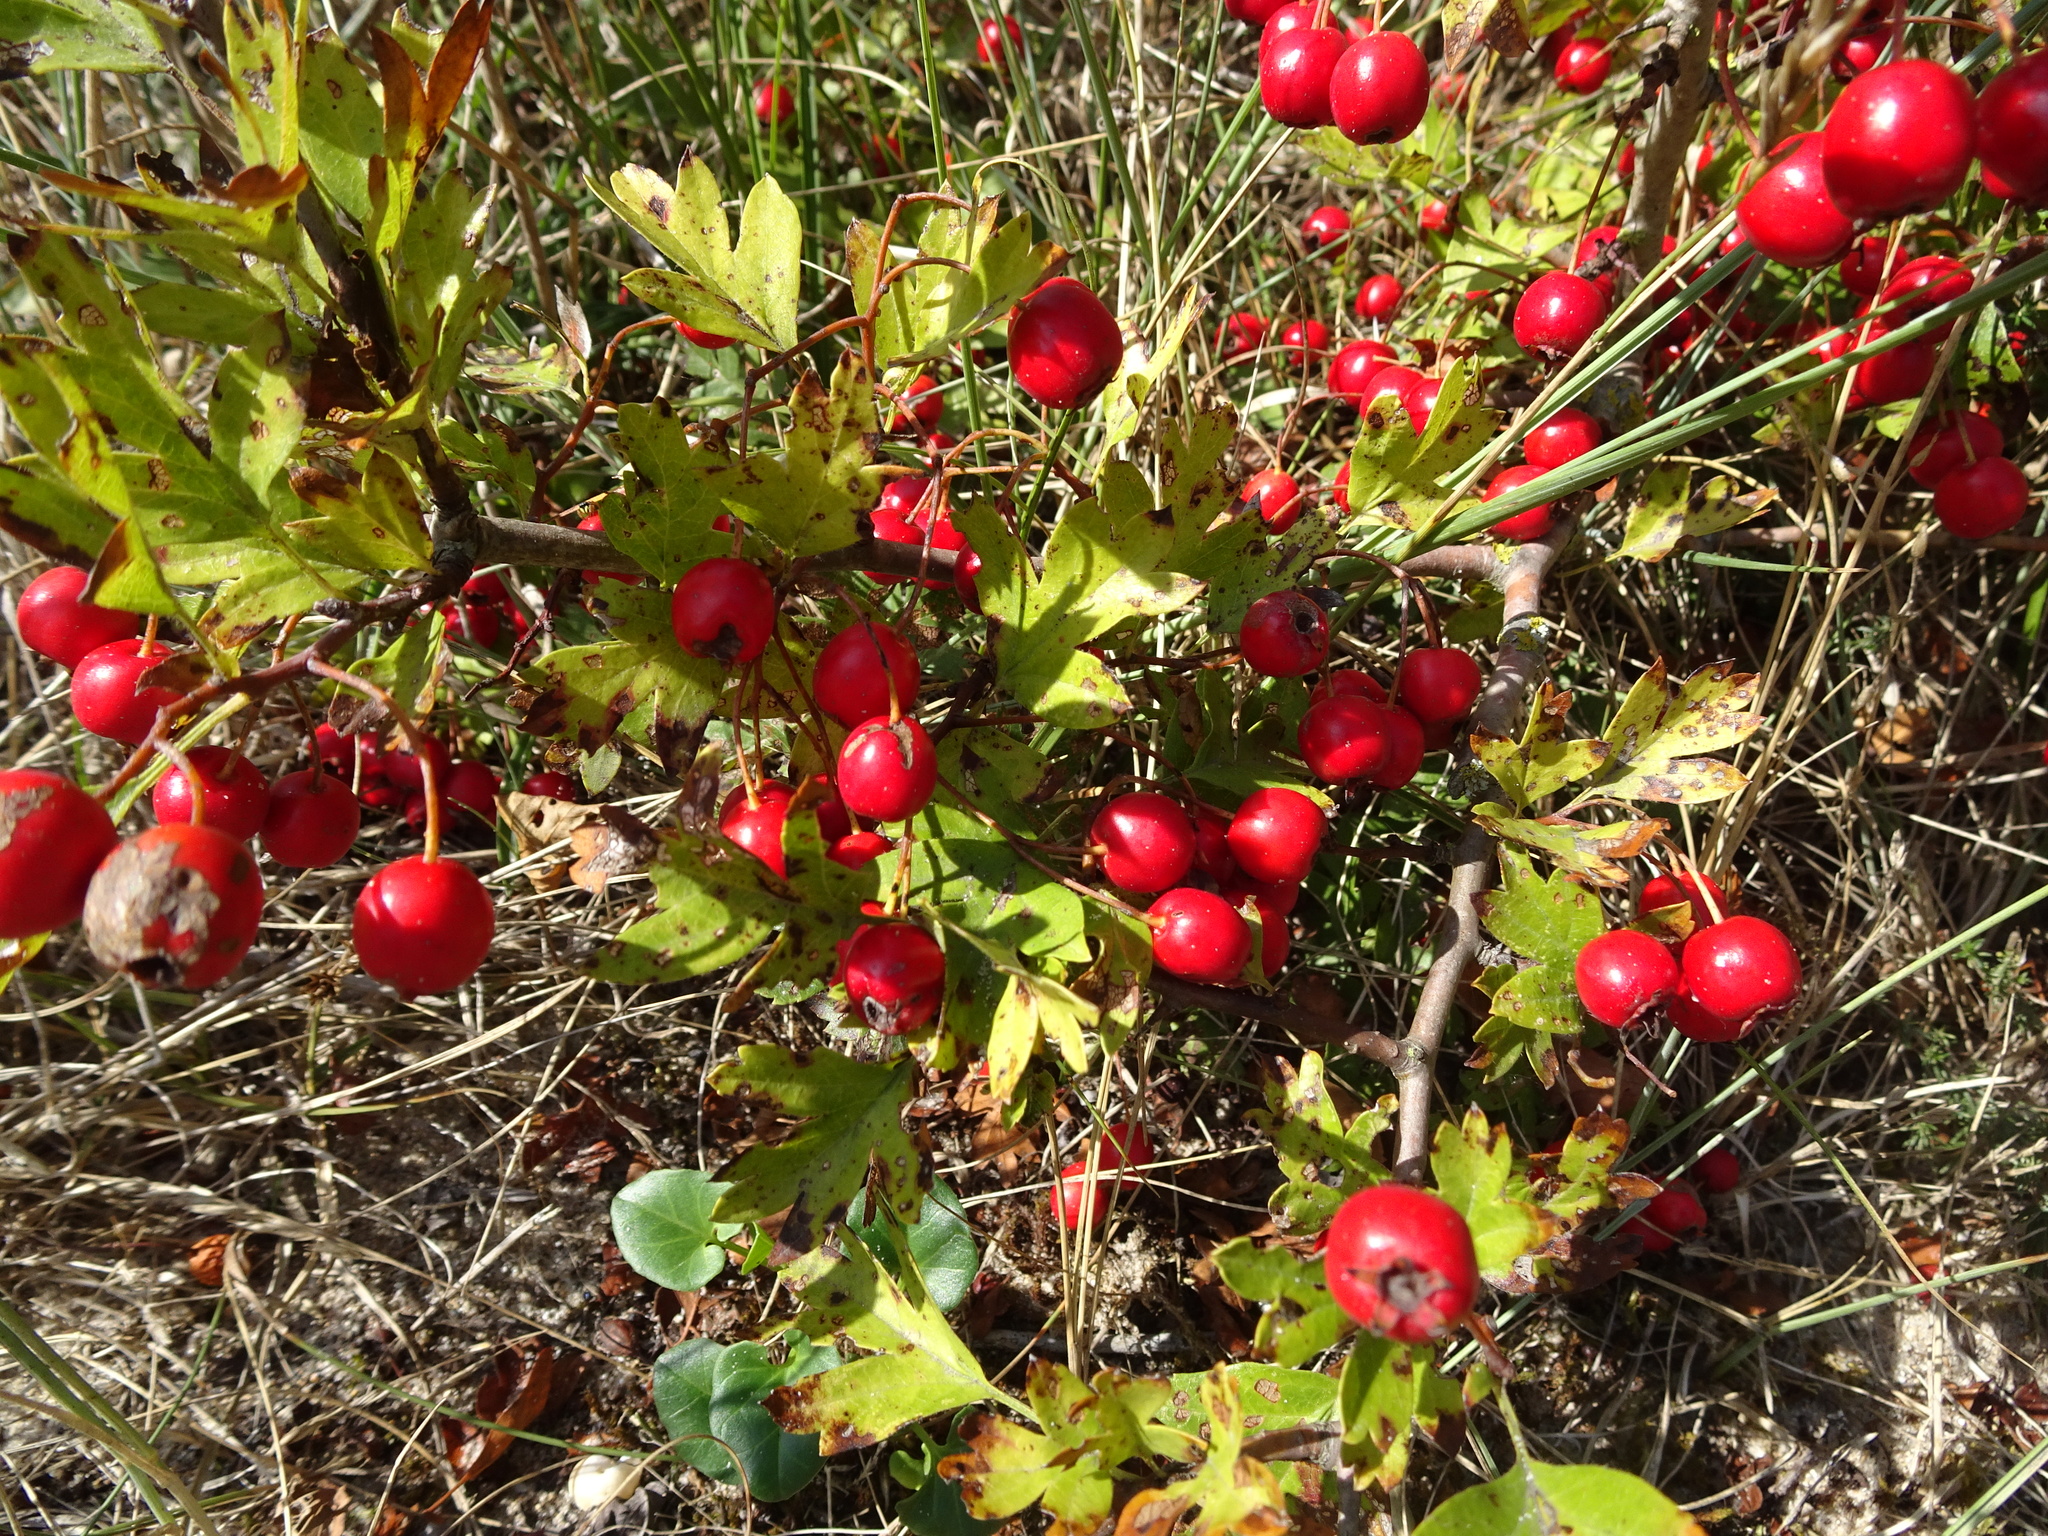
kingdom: Plantae
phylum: Tracheophyta
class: Magnoliopsida
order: Rosales
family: Rosaceae
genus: Crataegus
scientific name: Crataegus monogyna
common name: Hawthorn
